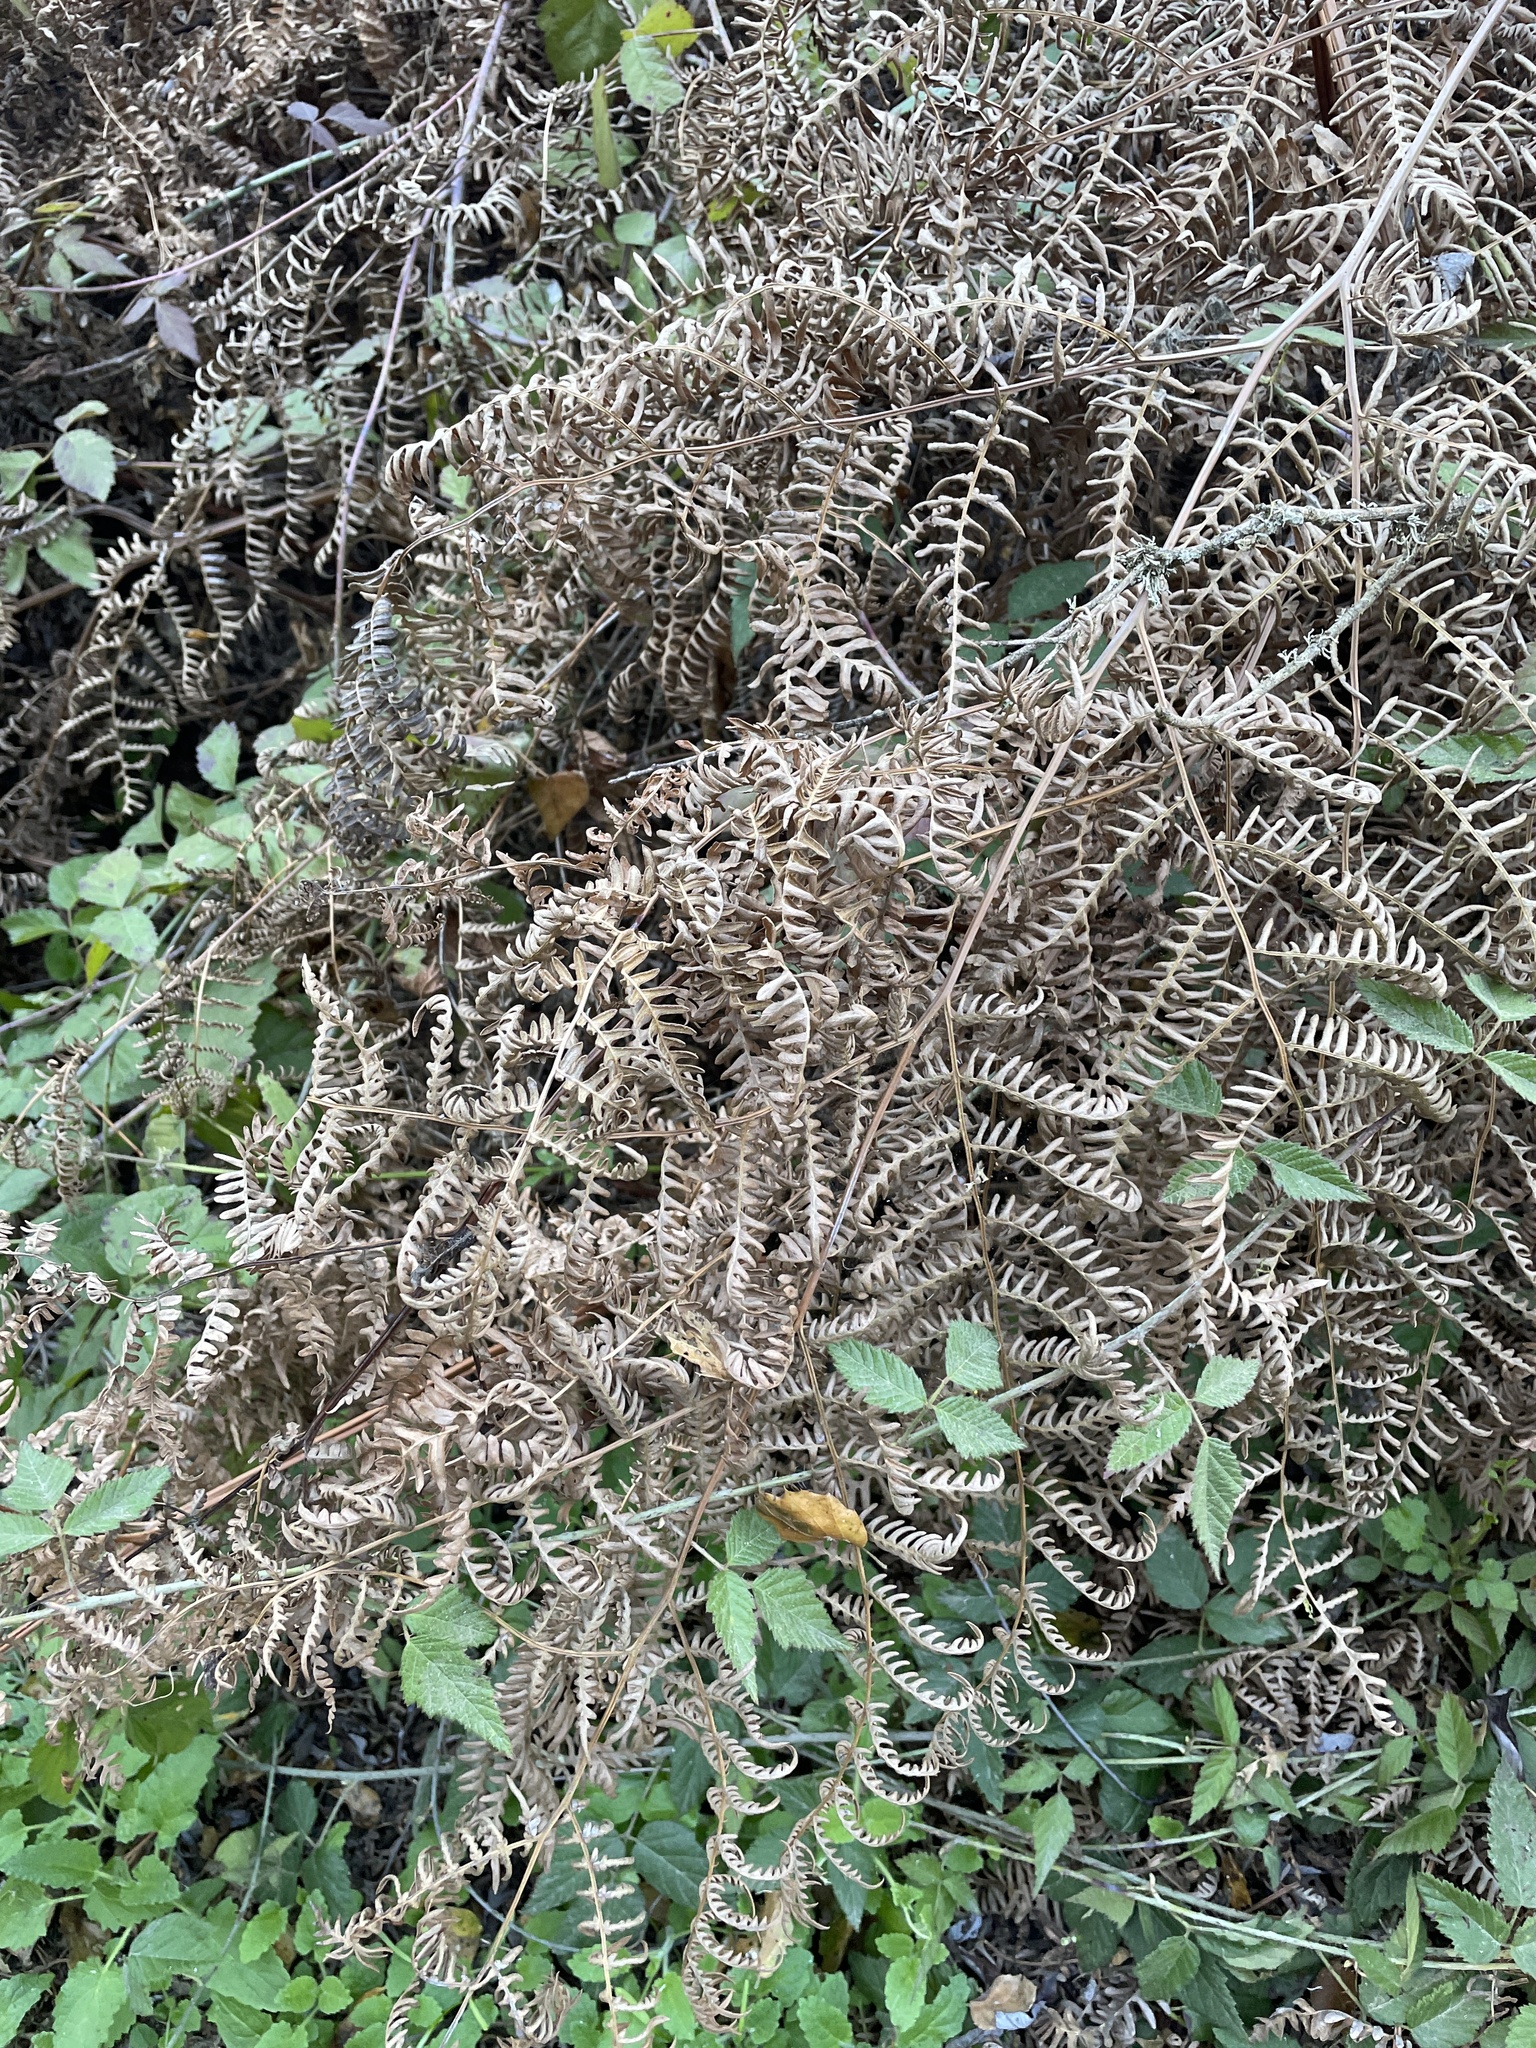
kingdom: Plantae
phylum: Tracheophyta
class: Polypodiopsida
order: Polypodiales
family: Dennstaedtiaceae
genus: Pteridium
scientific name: Pteridium aquilinum
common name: Bracken
